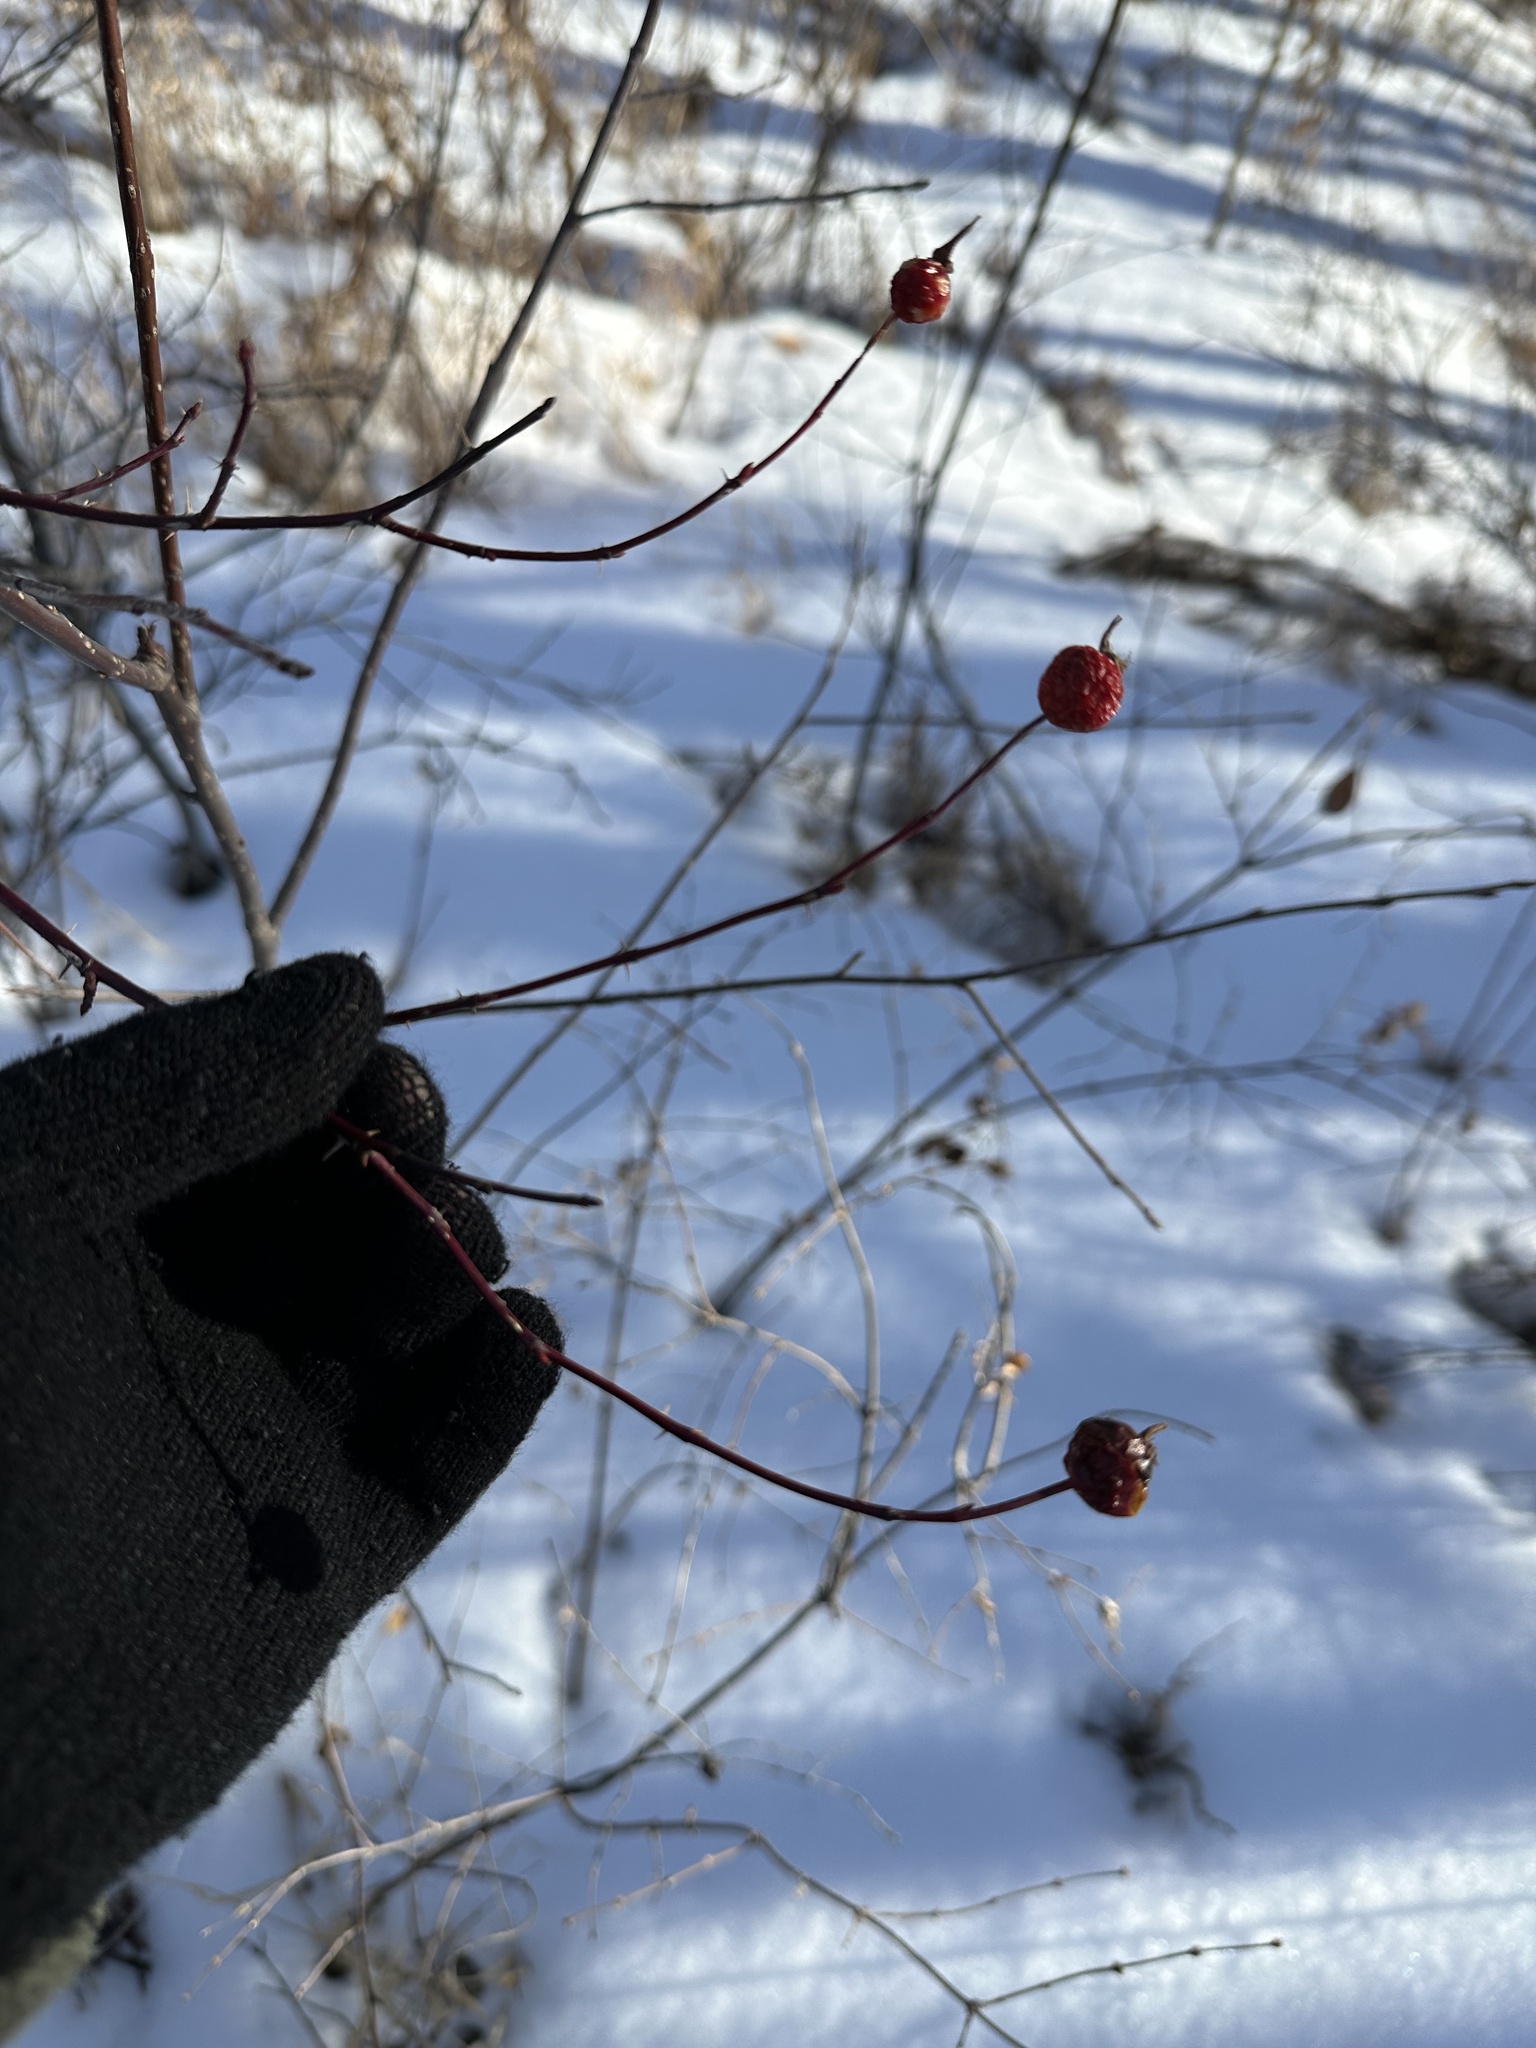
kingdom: Plantae
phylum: Tracheophyta
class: Magnoliopsida
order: Rosales
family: Rosaceae
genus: Rosa
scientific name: Rosa woodsii
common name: Woods's rose
